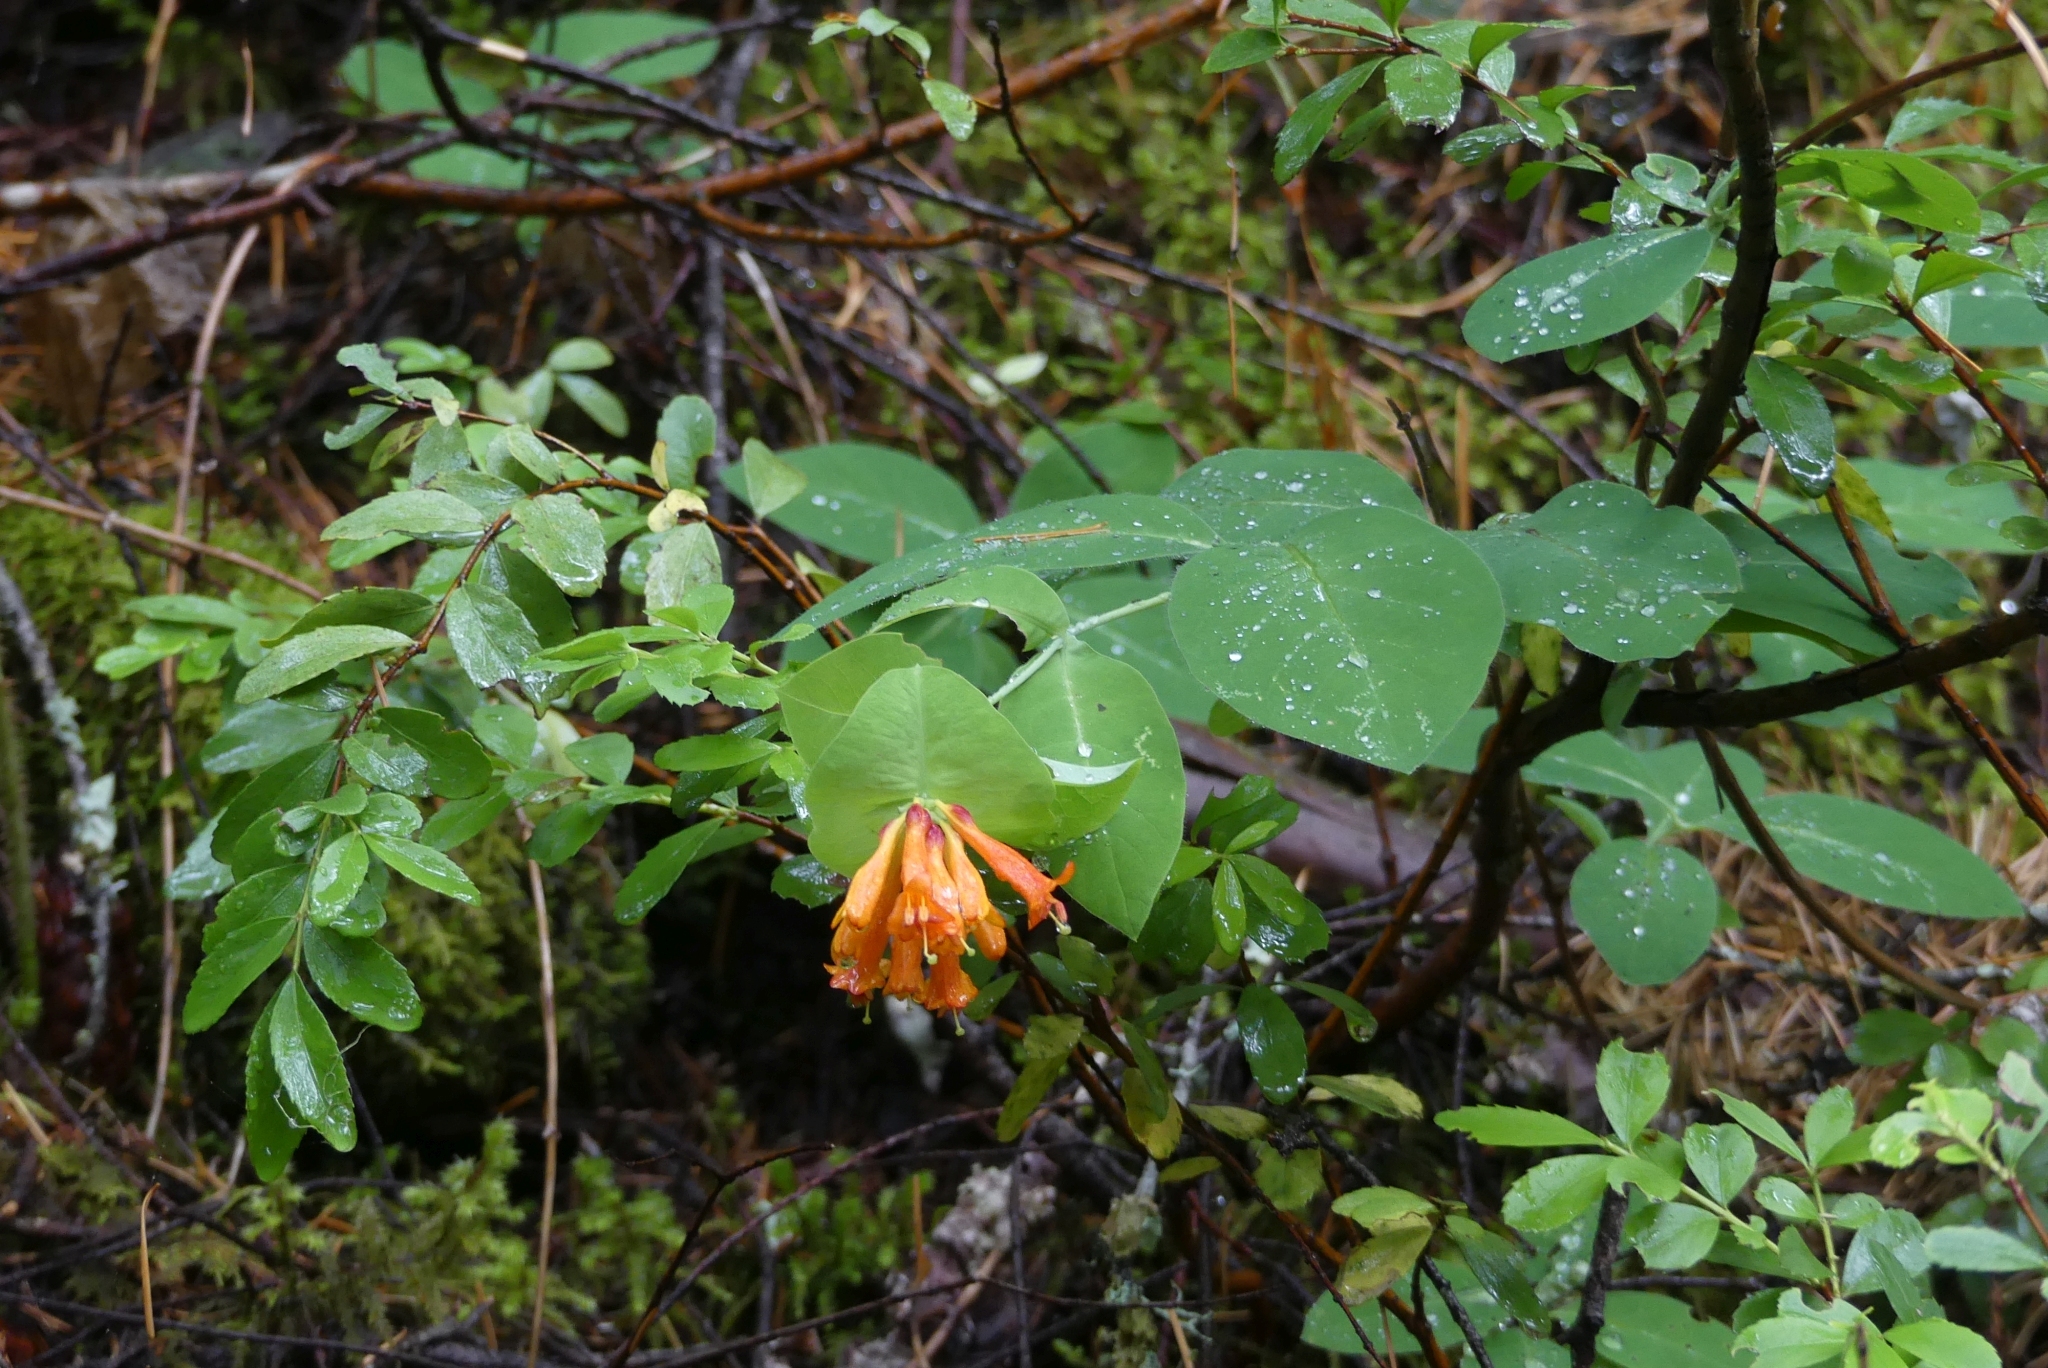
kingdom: Plantae
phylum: Tracheophyta
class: Magnoliopsida
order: Dipsacales
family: Caprifoliaceae
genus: Lonicera
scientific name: Lonicera ciliosa
